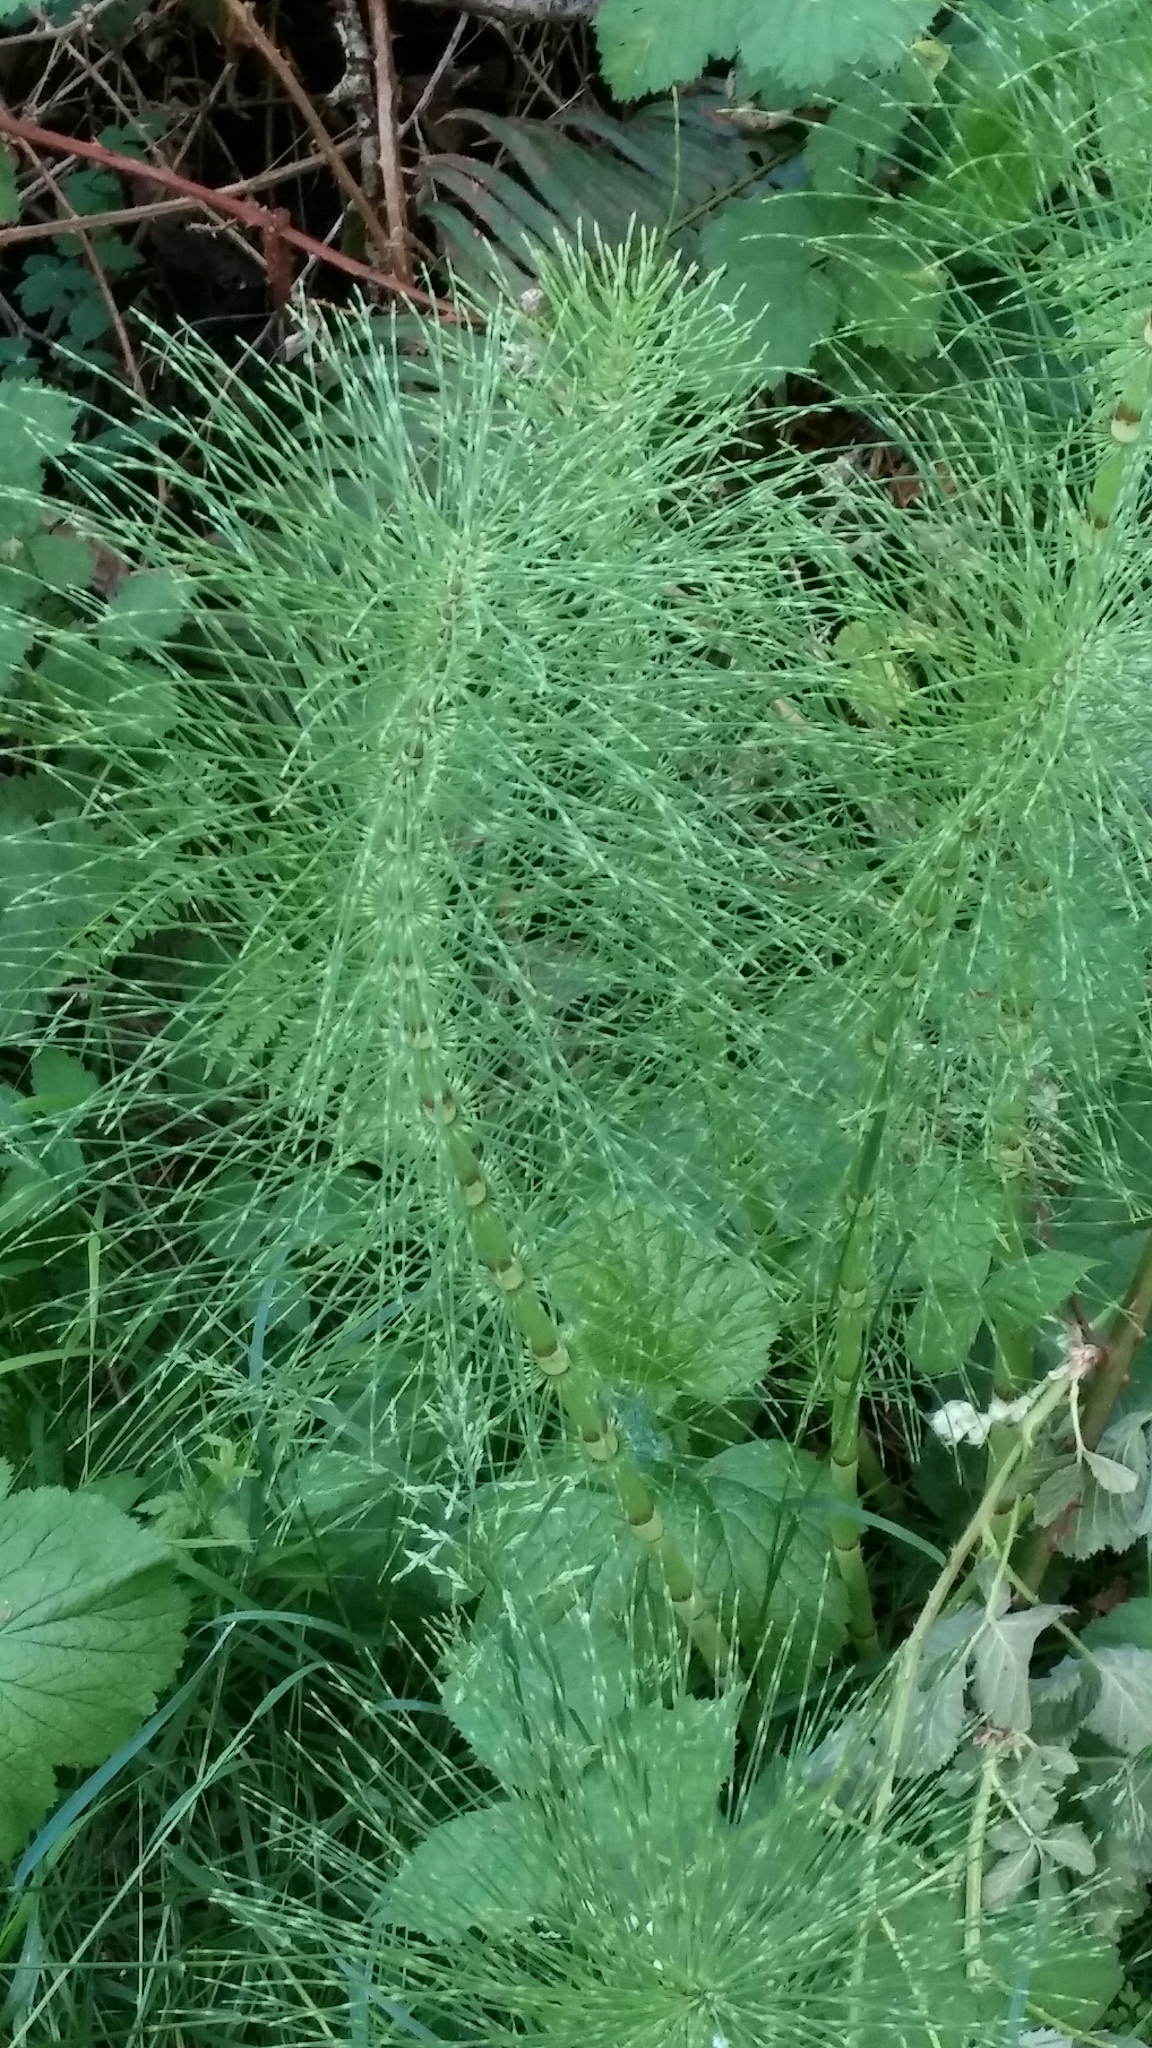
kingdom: Plantae
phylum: Tracheophyta
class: Polypodiopsida
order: Equisetales
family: Equisetaceae
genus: Equisetum
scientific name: Equisetum braunii
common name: Braun's horsetail
